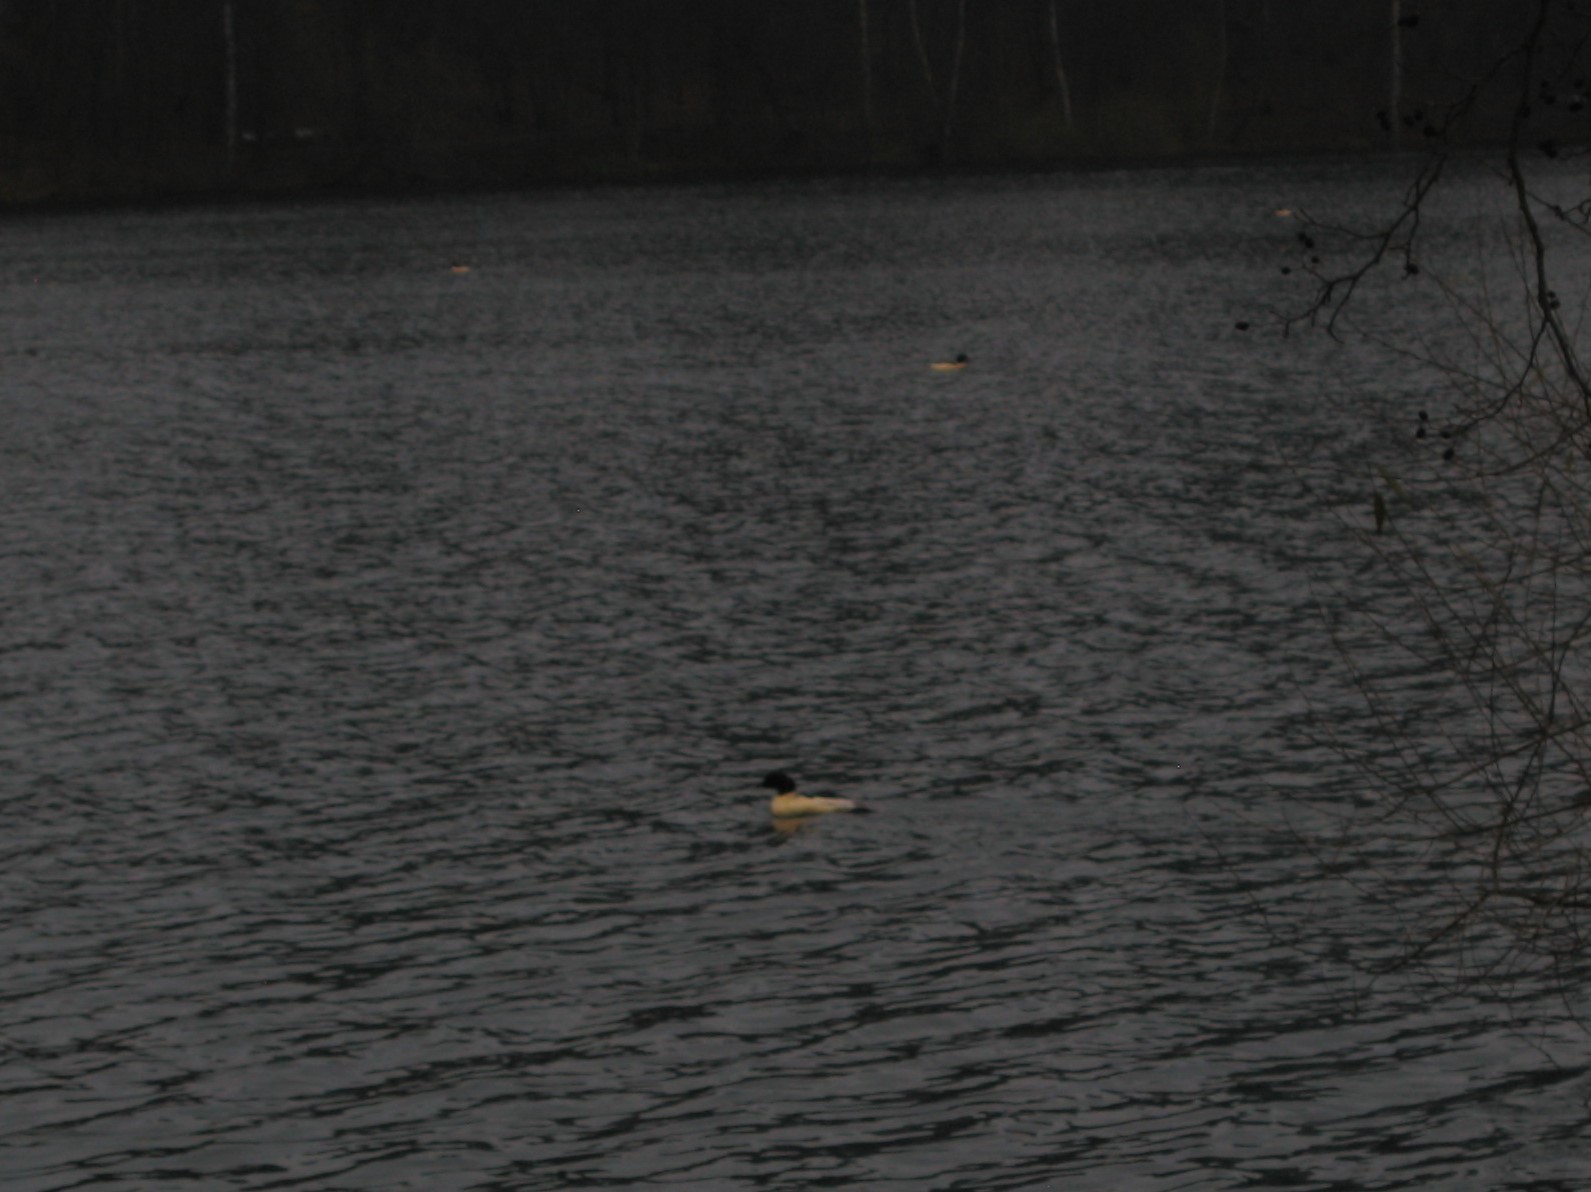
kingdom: Animalia
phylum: Chordata
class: Aves
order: Anseriformes
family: Anatidae
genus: Mergus
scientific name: Mergus merganser
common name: Common merganser
